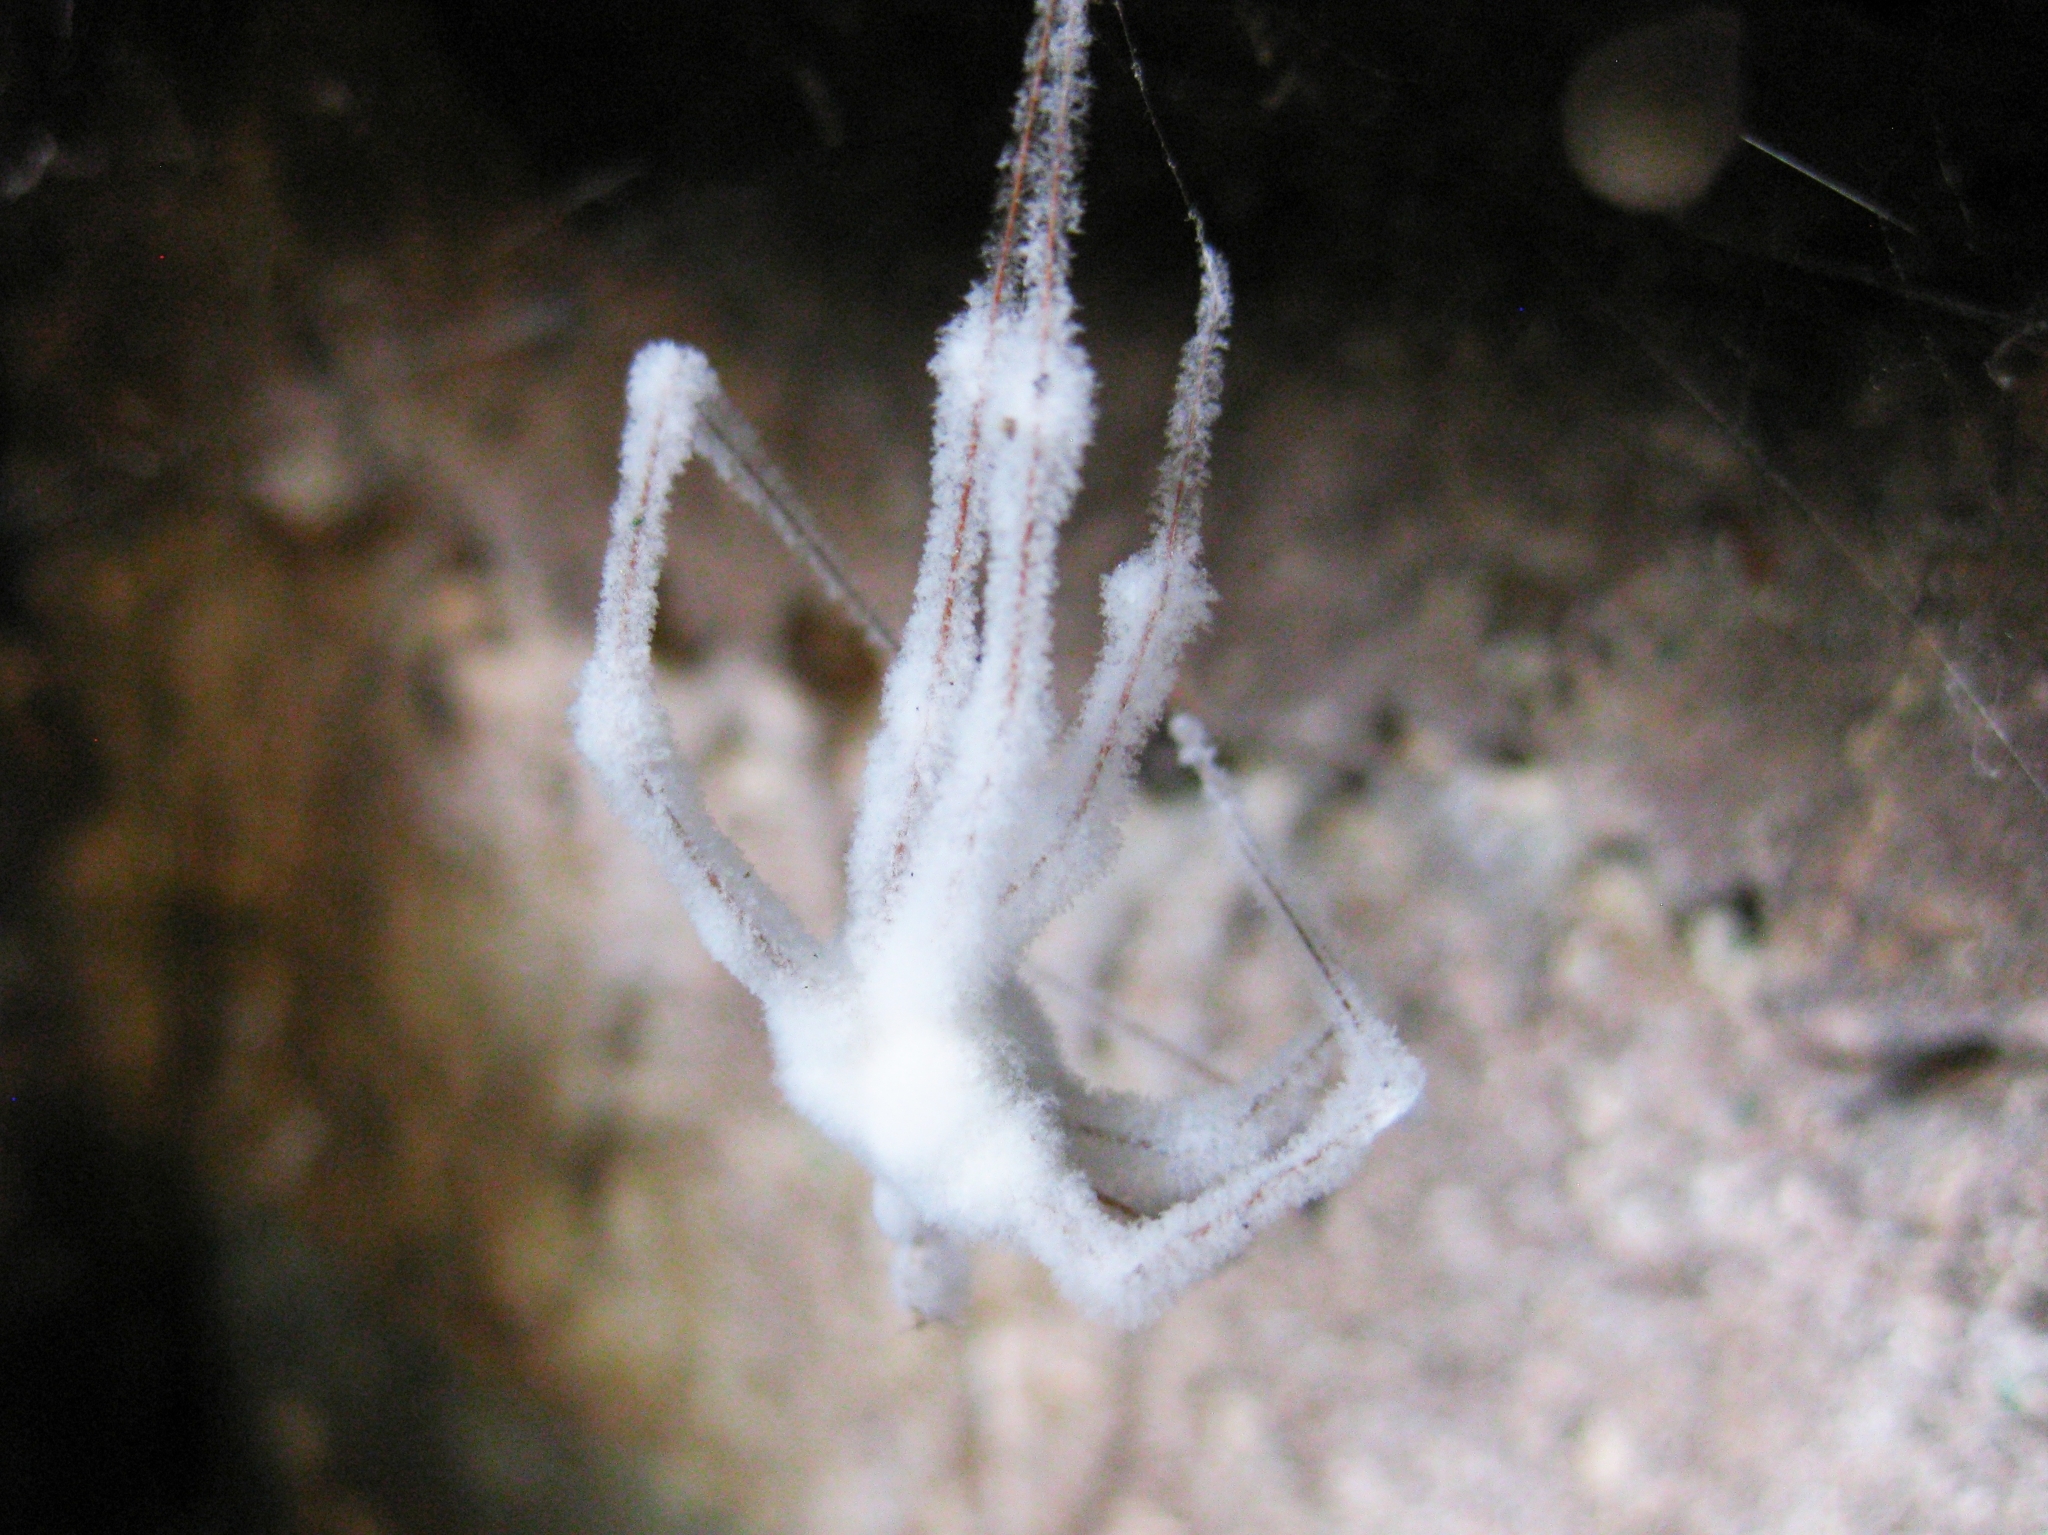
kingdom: Fungi
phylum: Ascomycota
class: Sordariomycetes
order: Hypocreales
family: Cordycipitaceae
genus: Lecanicillium
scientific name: Lecanicillium tenuipes
